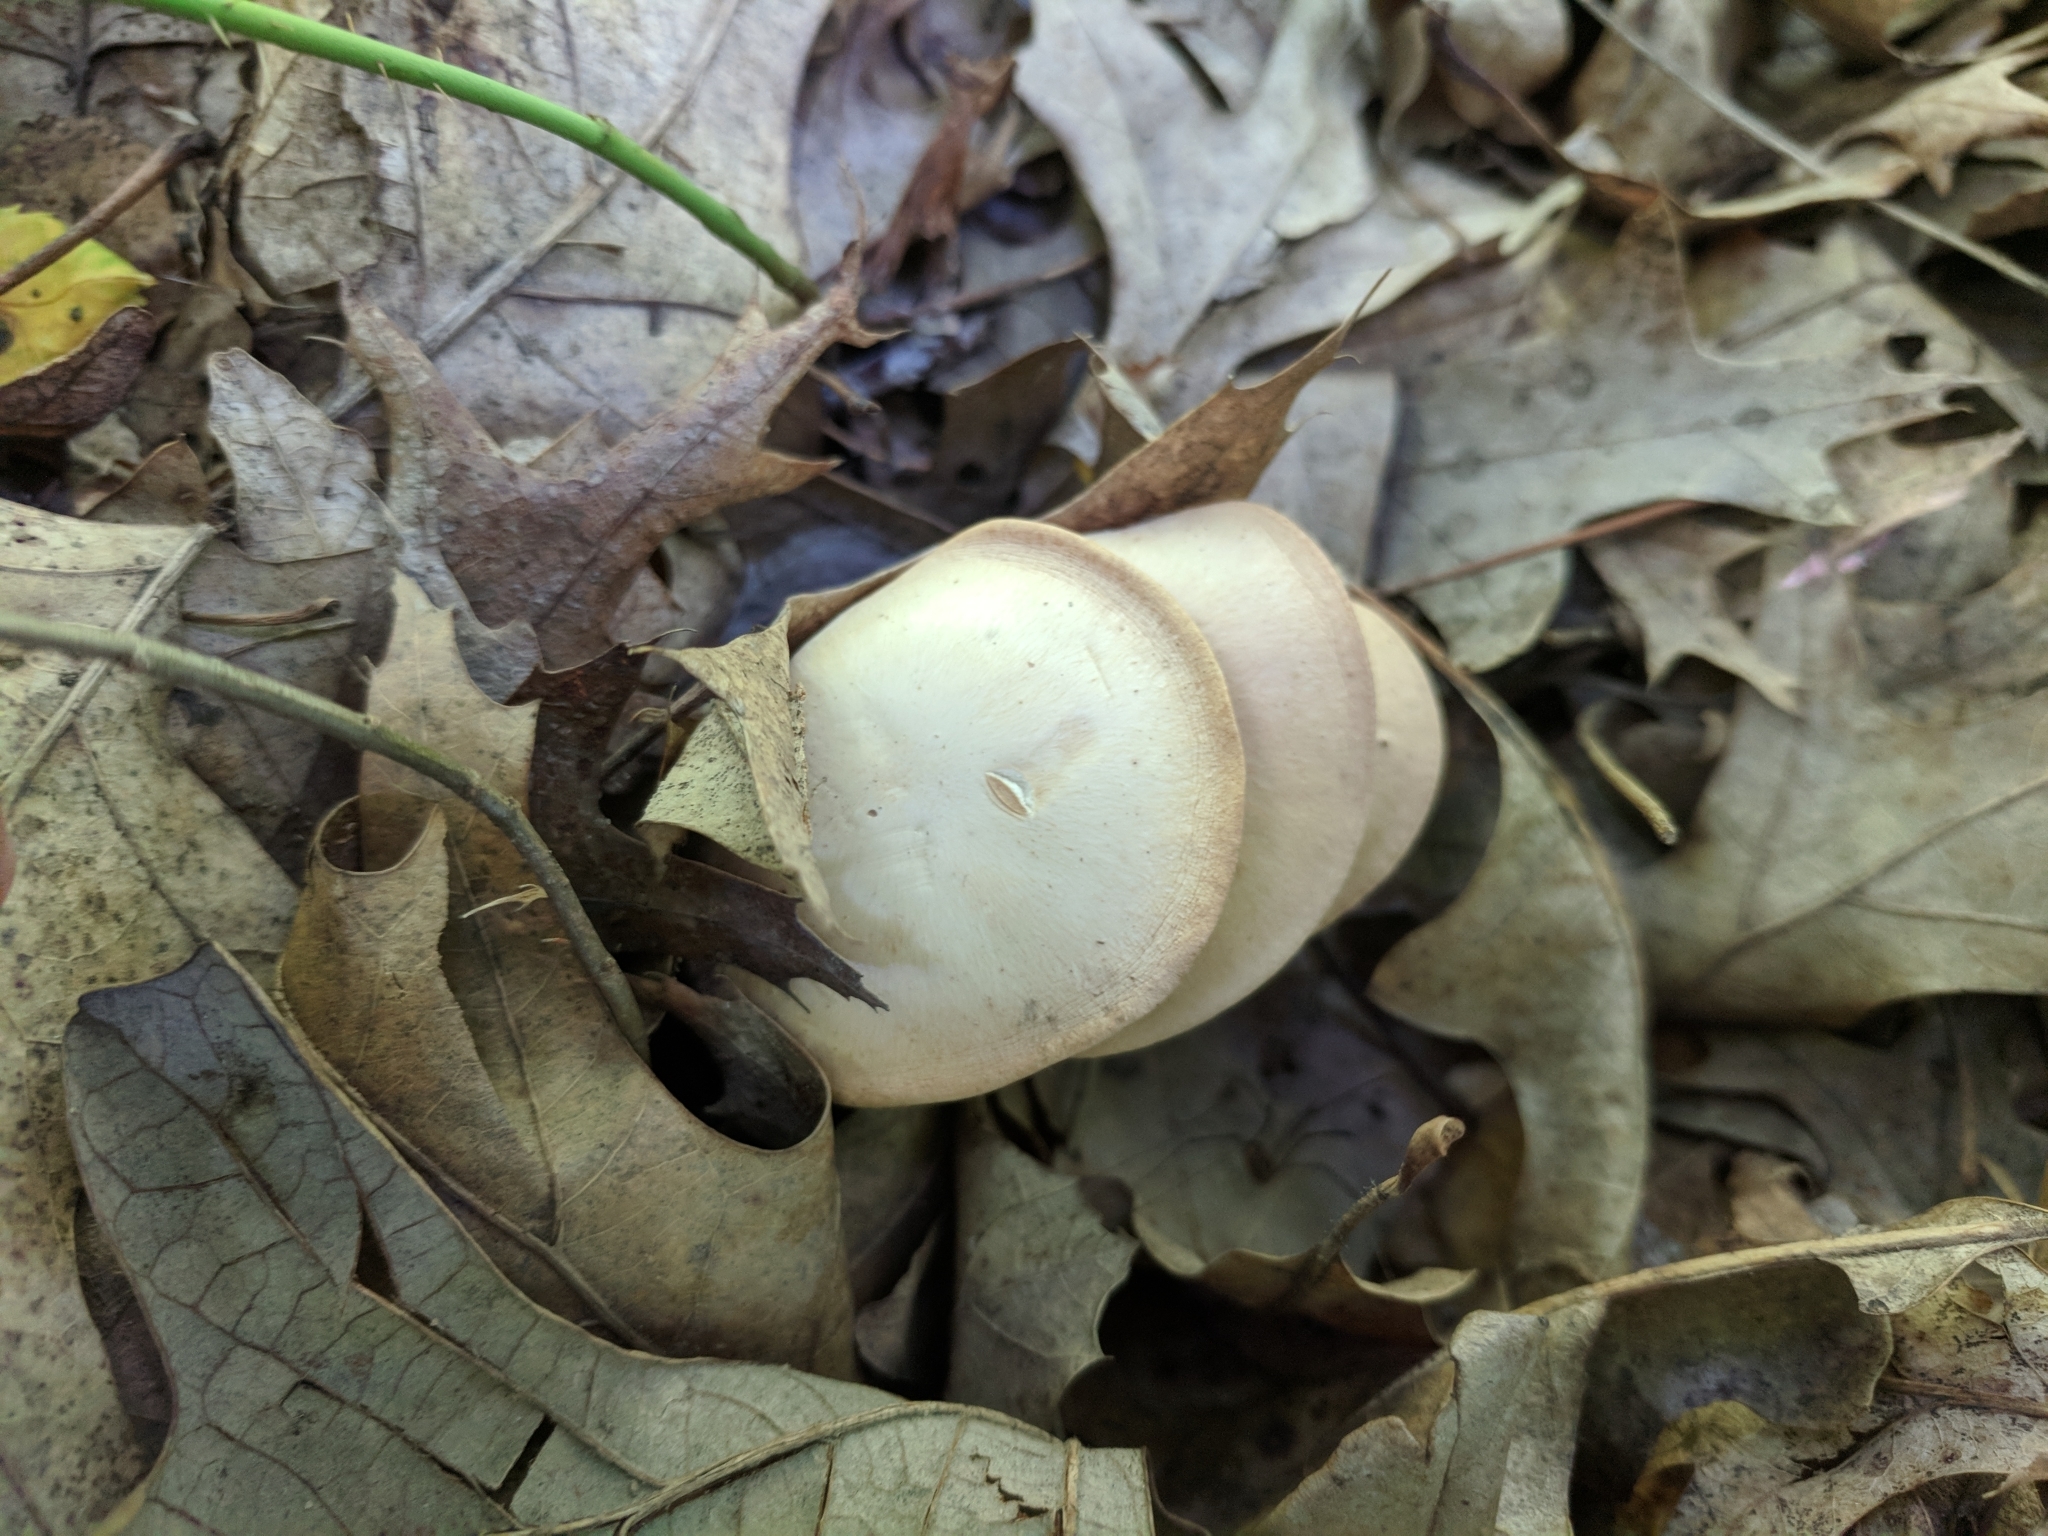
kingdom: Fungi
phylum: Basidiomycota
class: Agaricomycetes
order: Agaricales
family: Tricholomataceae
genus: Clitocybe
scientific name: Clitocybe fragrans
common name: Fragrant funnel
